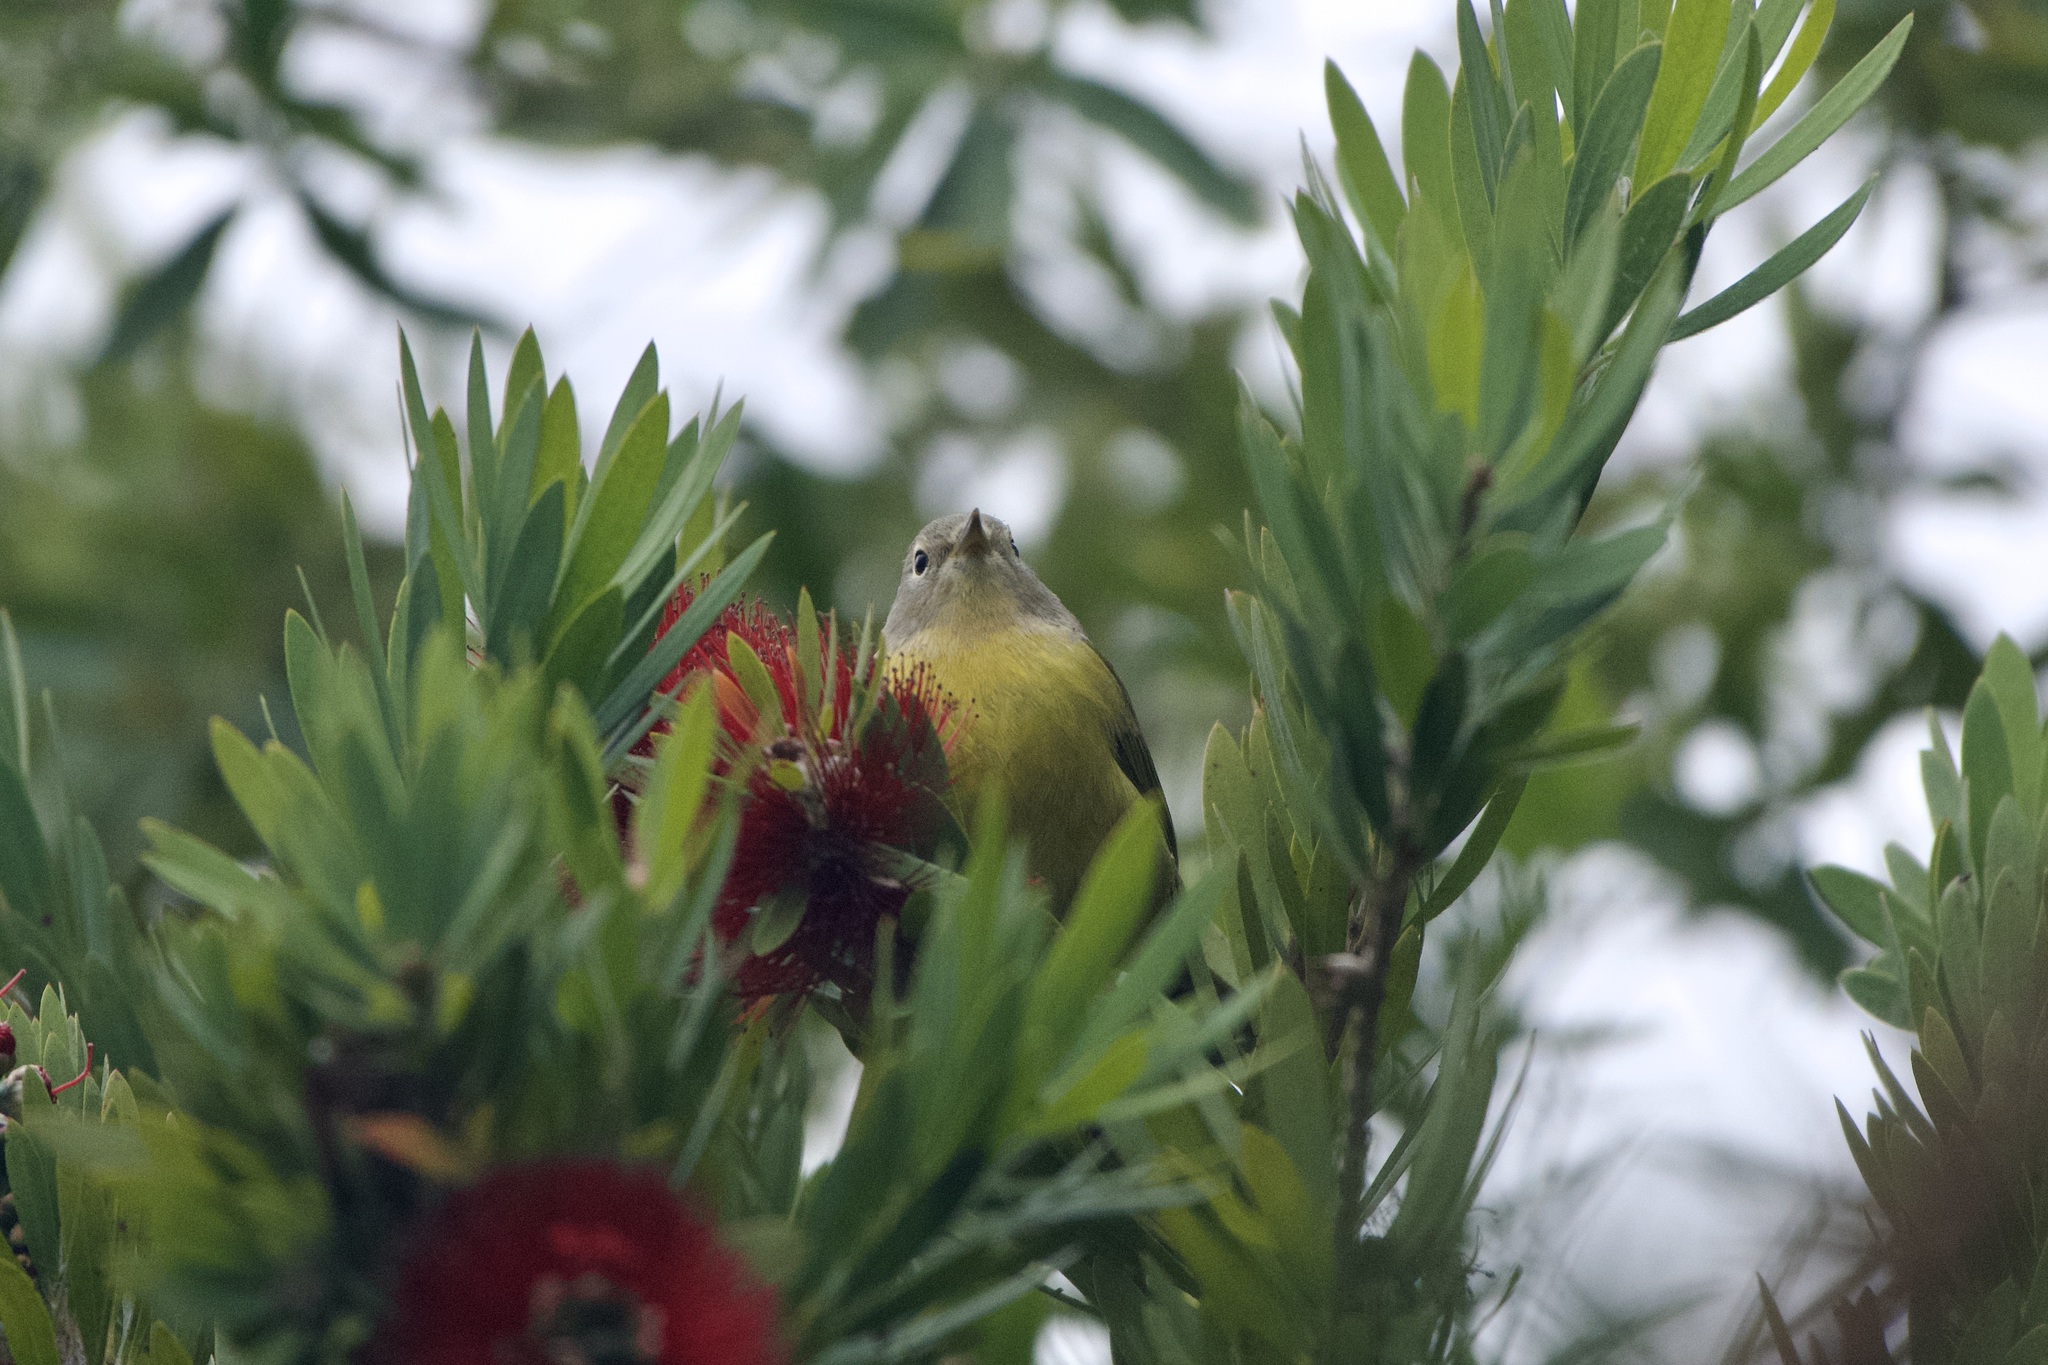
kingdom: Animalia
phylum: Chordata
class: Aves
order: Passeriformes
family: Parulidae
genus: Leiothlypis
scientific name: Leiothlypis ruficapilla
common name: Nashville warbler
